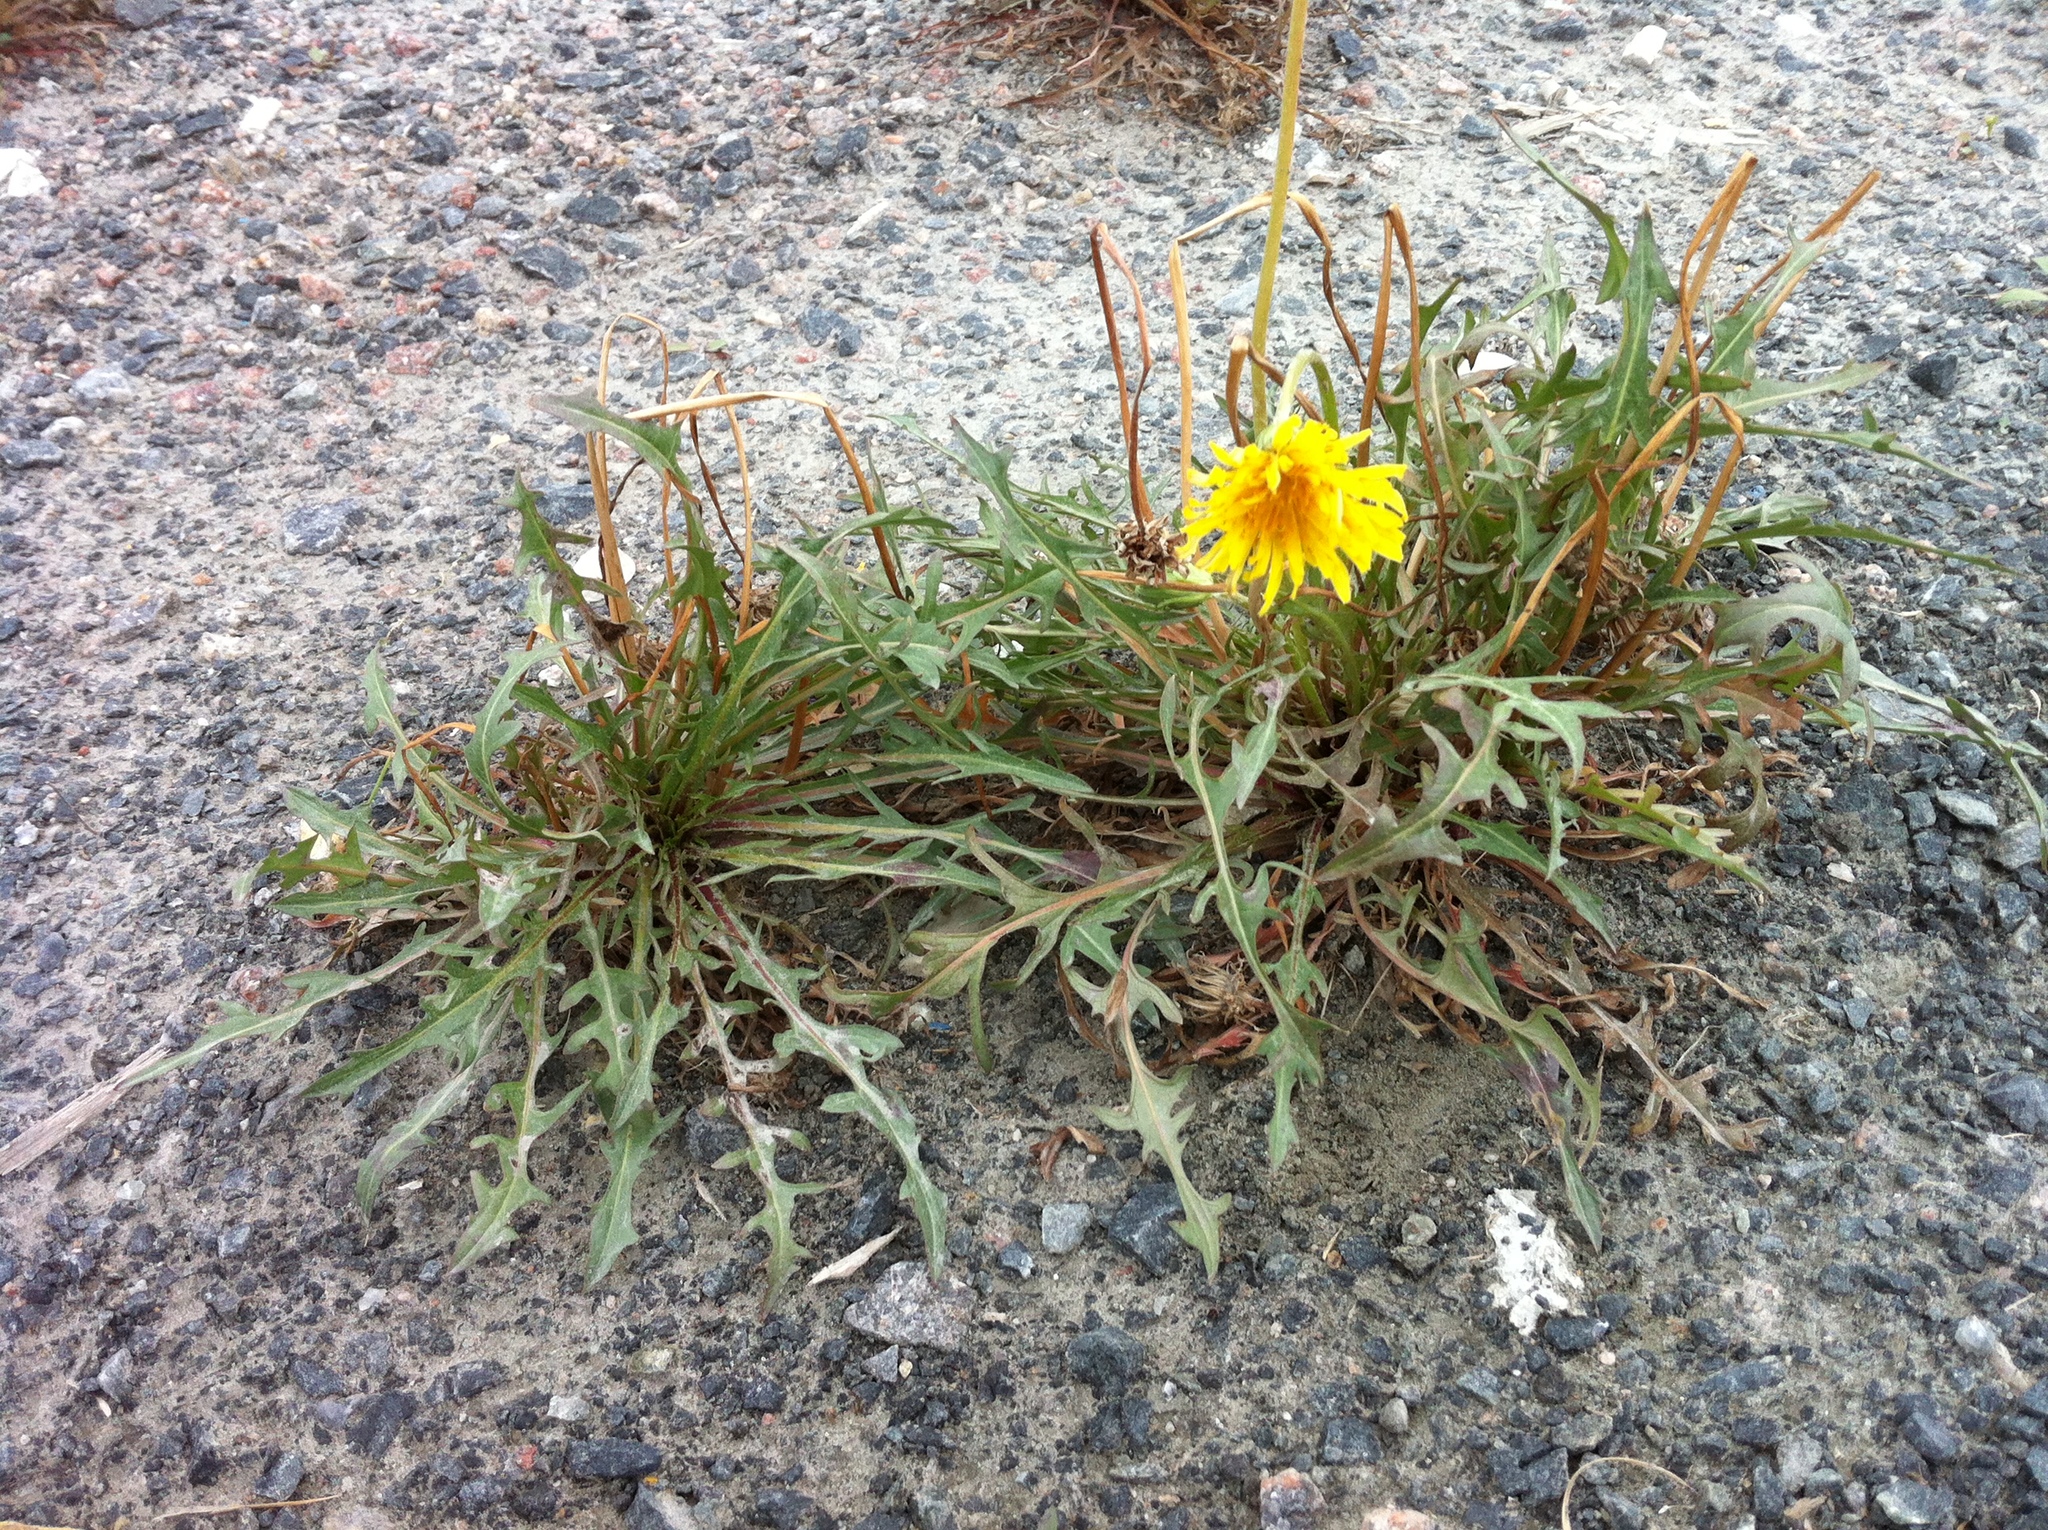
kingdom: Plantae
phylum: Tracheophyta
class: Magnoliopsida
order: Asterales
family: Asteraceae
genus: Taraxacum
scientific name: Taraxacum ceratophorum
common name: Horn-bearing dandelion
